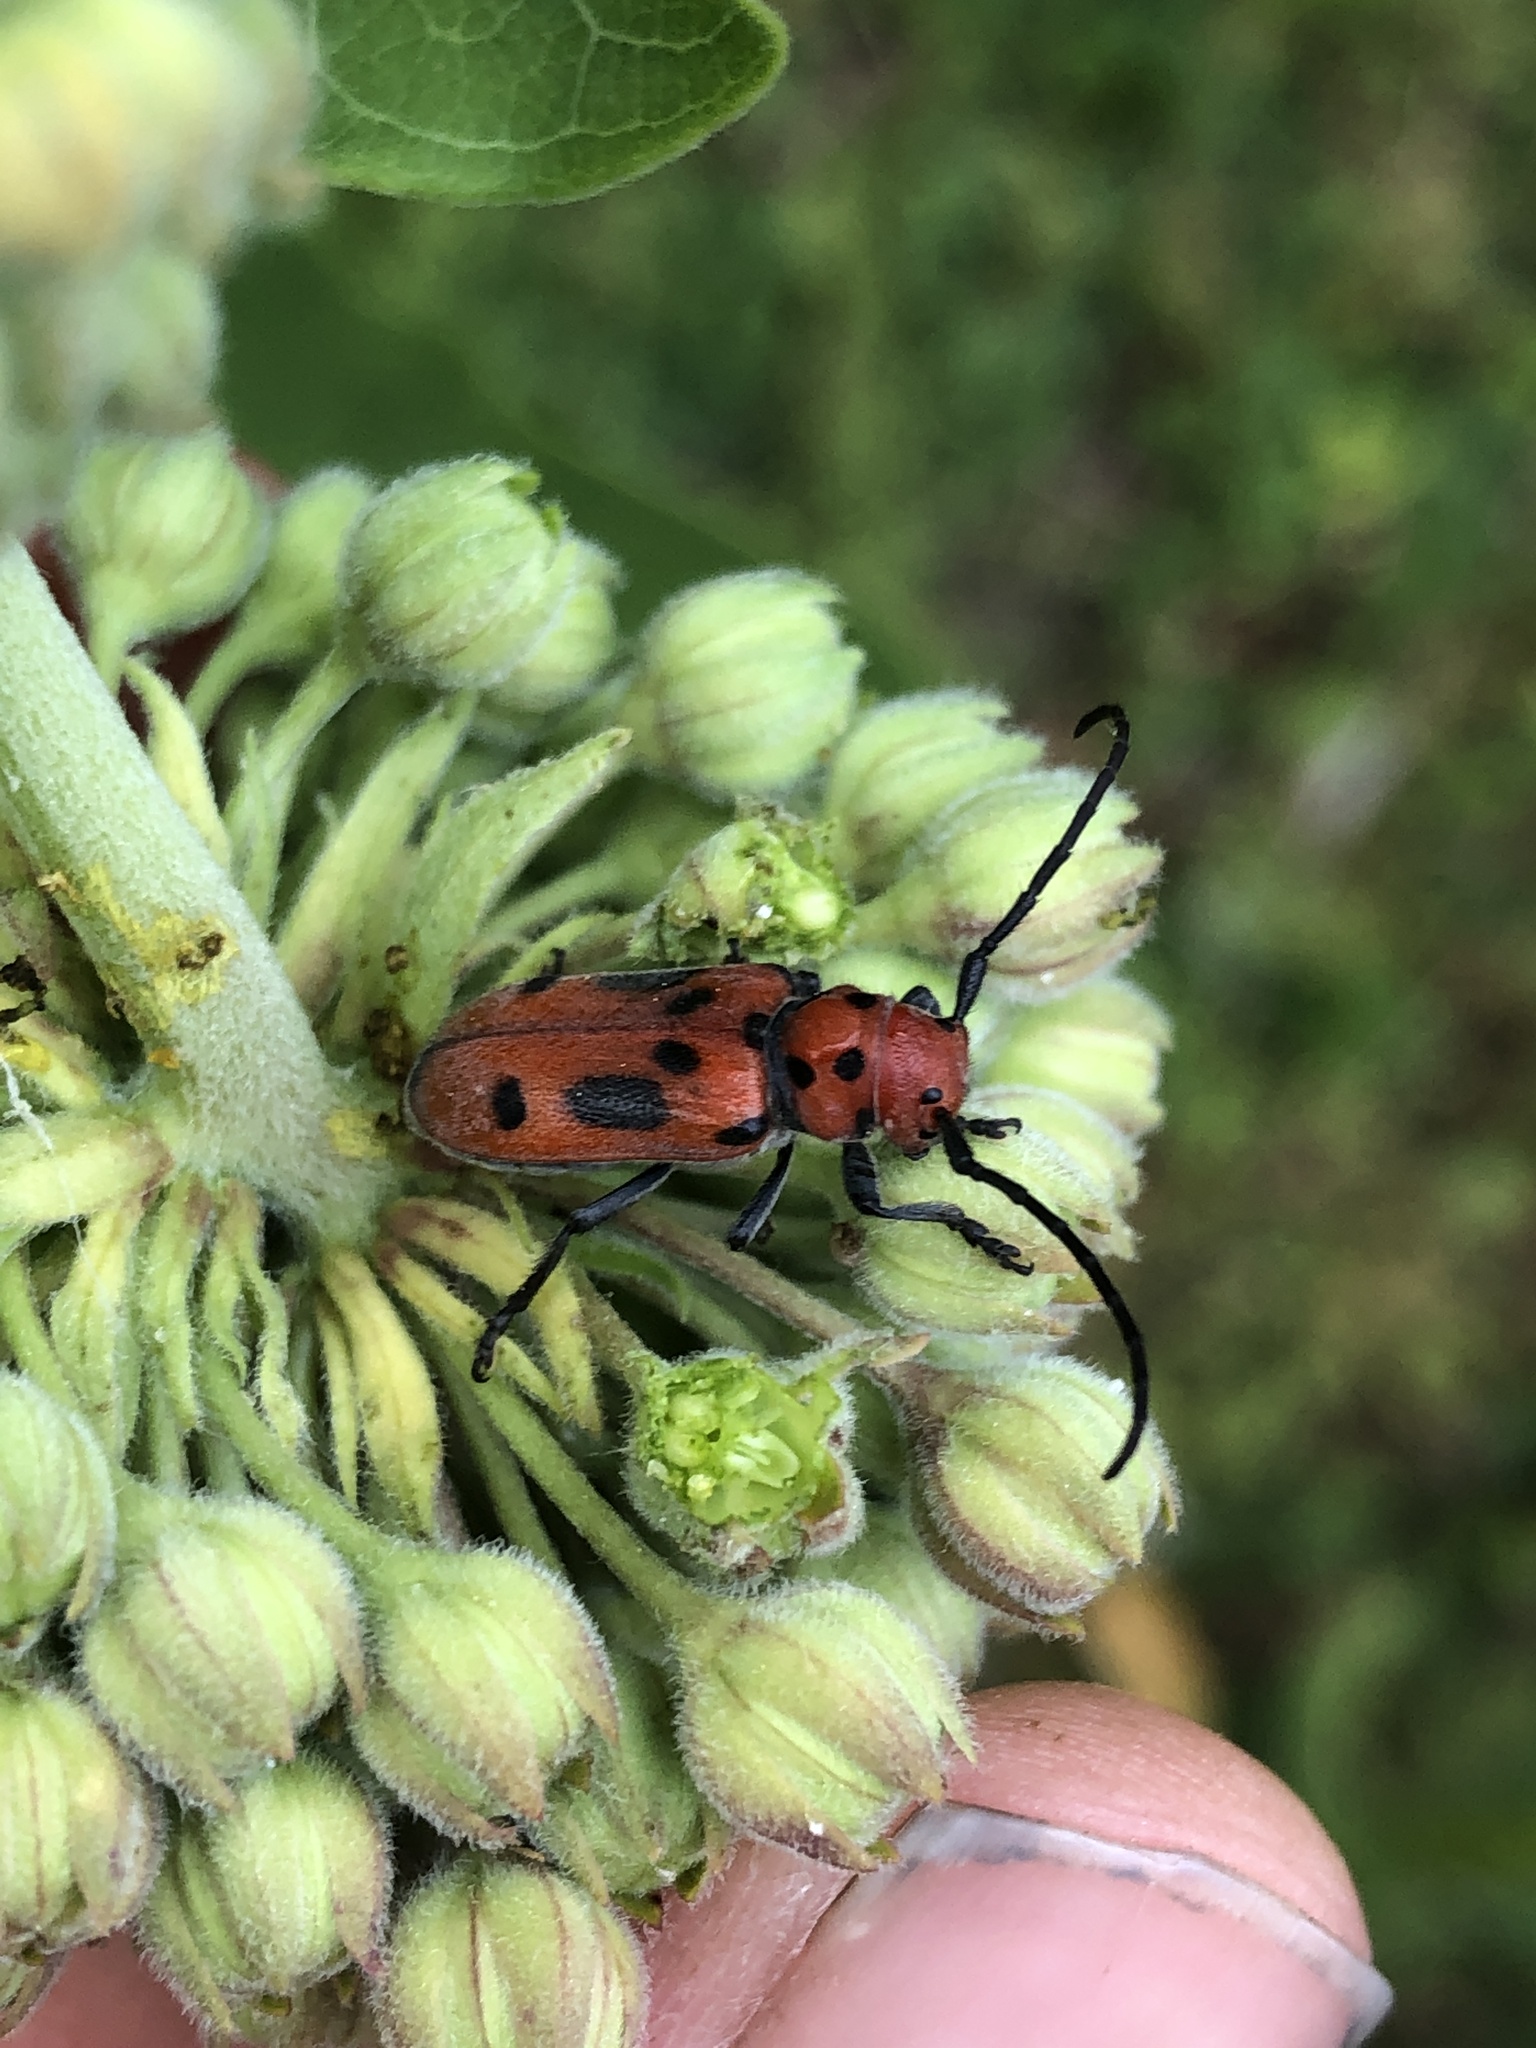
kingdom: Animalia
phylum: Arthropoda
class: Insecta
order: Coleoptera
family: Cerambycidae
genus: Tetraopes
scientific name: Tetraopes tetrophthalmus
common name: Red milkweed beetle
